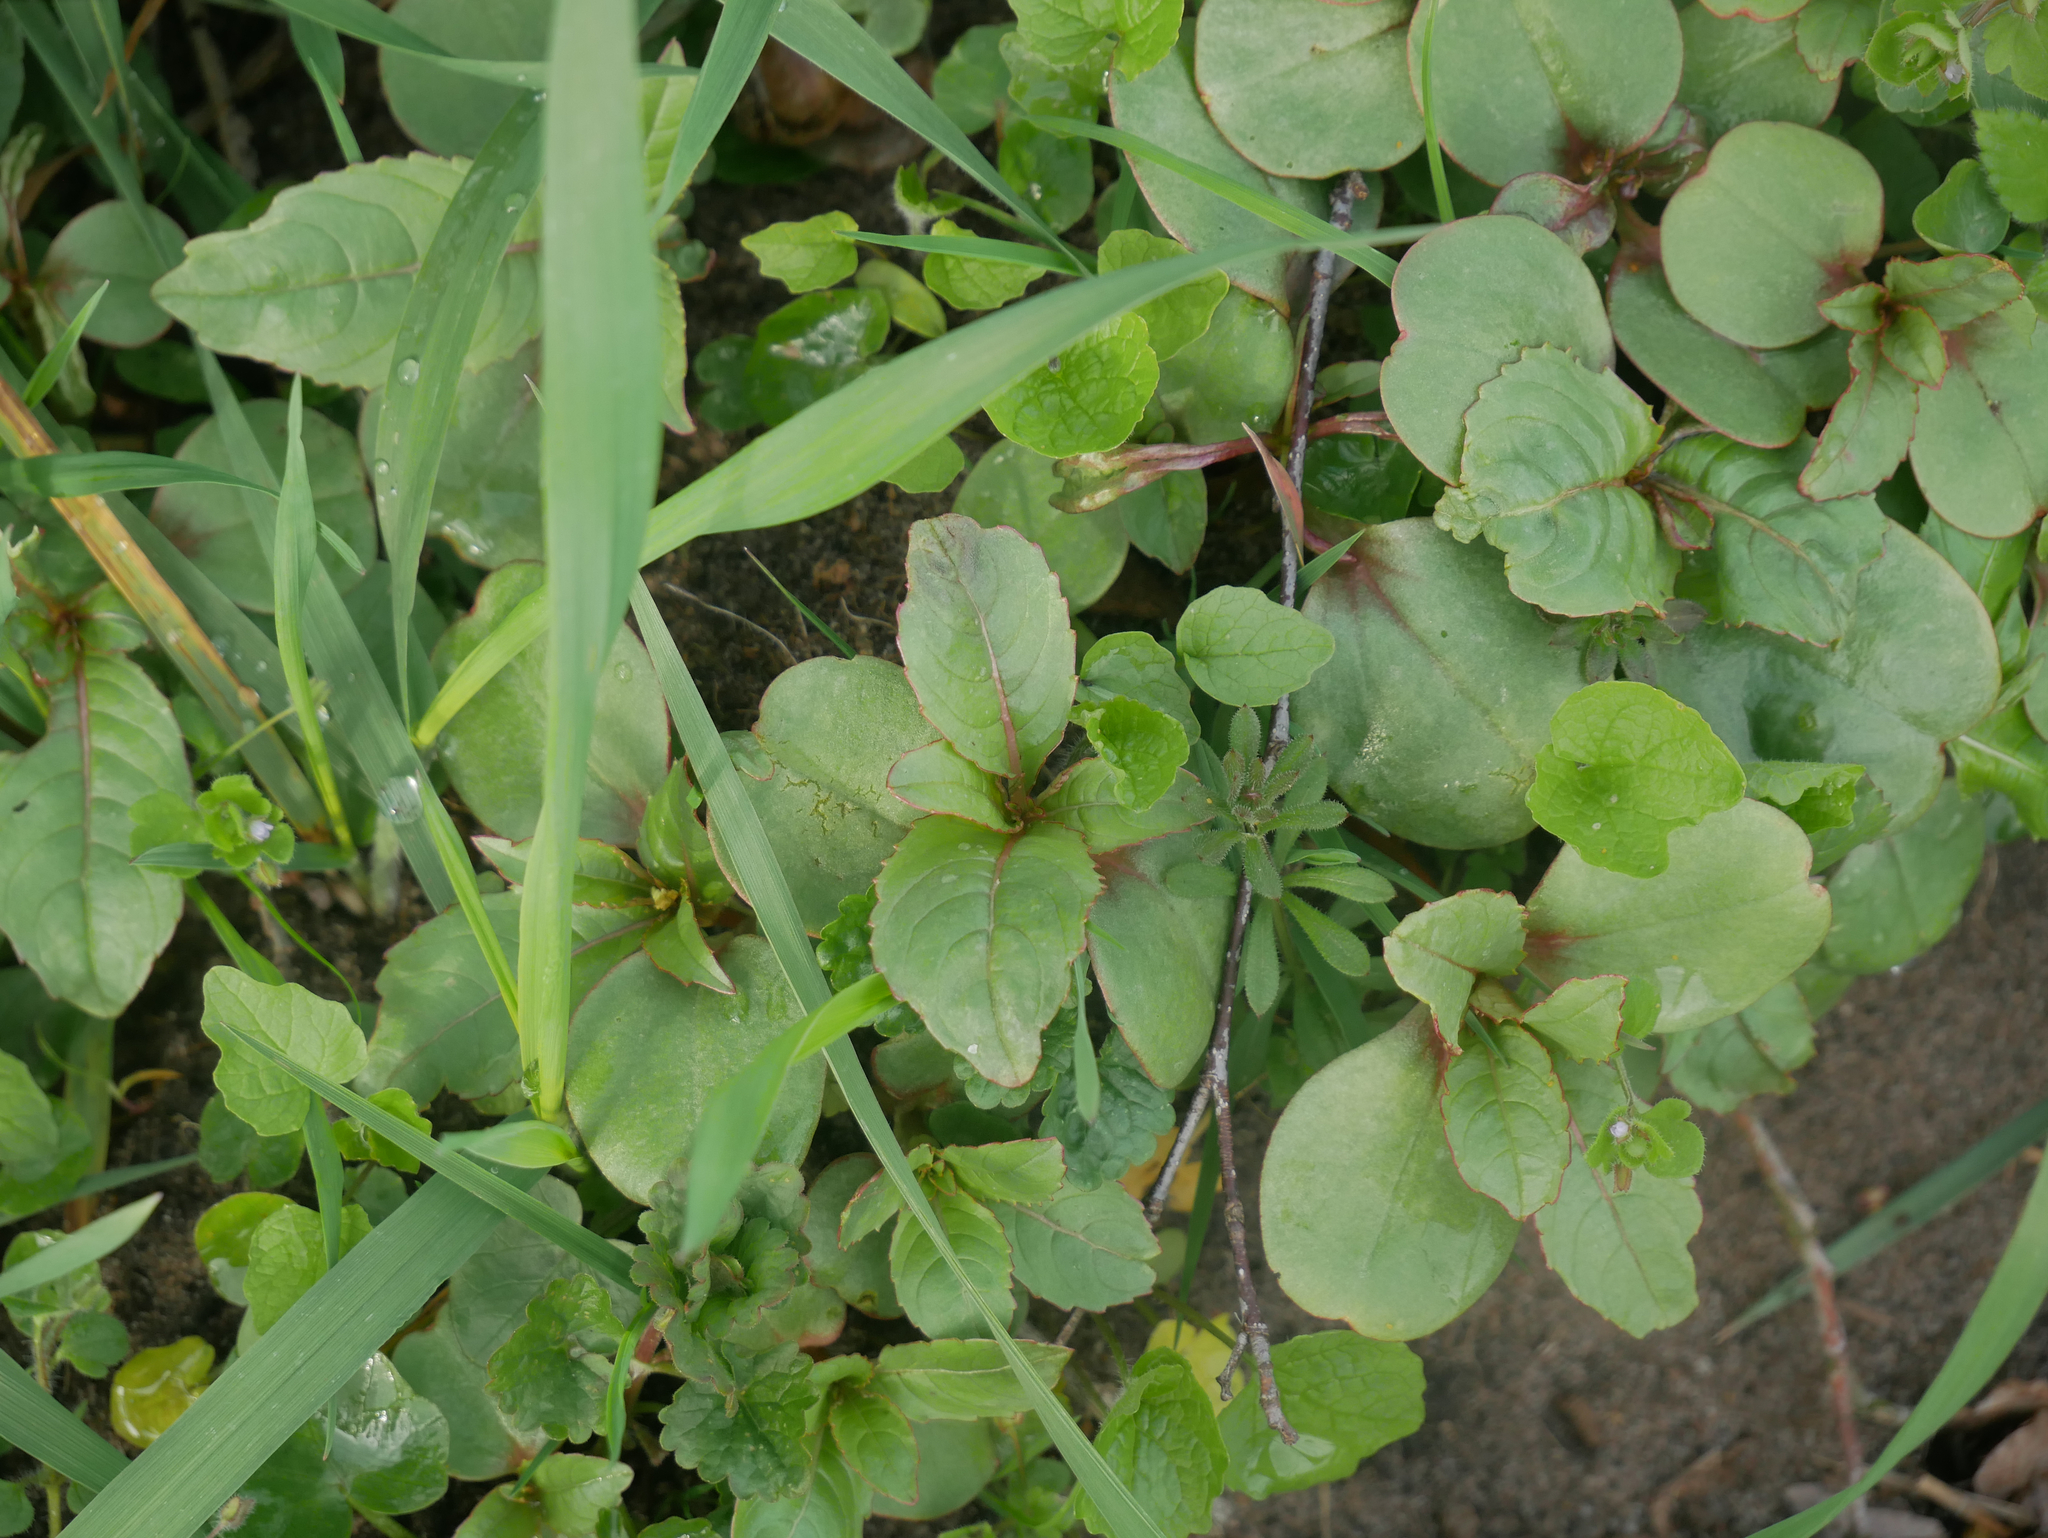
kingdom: Plantae
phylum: Tracheophyta
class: Magnoliopsida
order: Ericales
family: Balsaminaceae
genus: Impatiens
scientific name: Impatiens glandulifera
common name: Himalayan balsam
